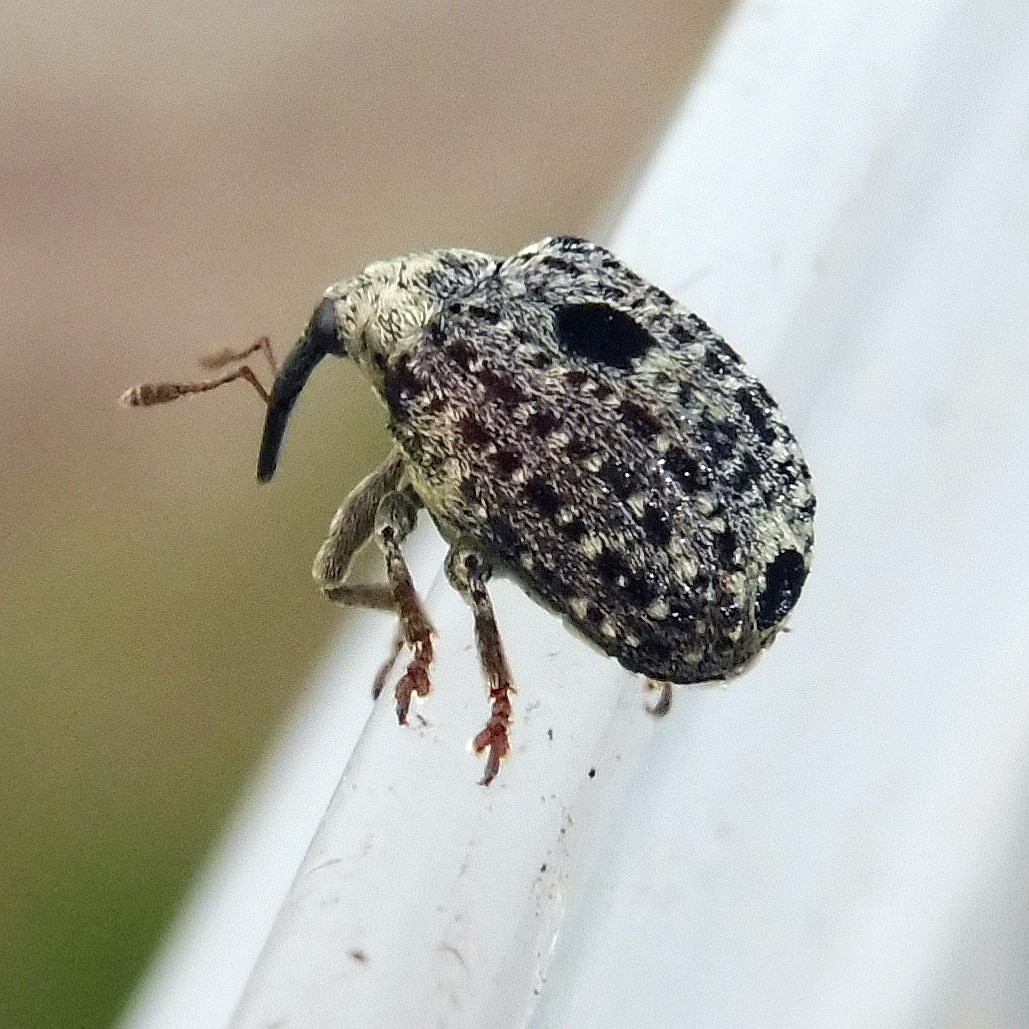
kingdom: Animalia
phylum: Arthropoda
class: Insecta
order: Coleoptera
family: Curculionidae
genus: Cionus
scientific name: Cionus hortulanus
